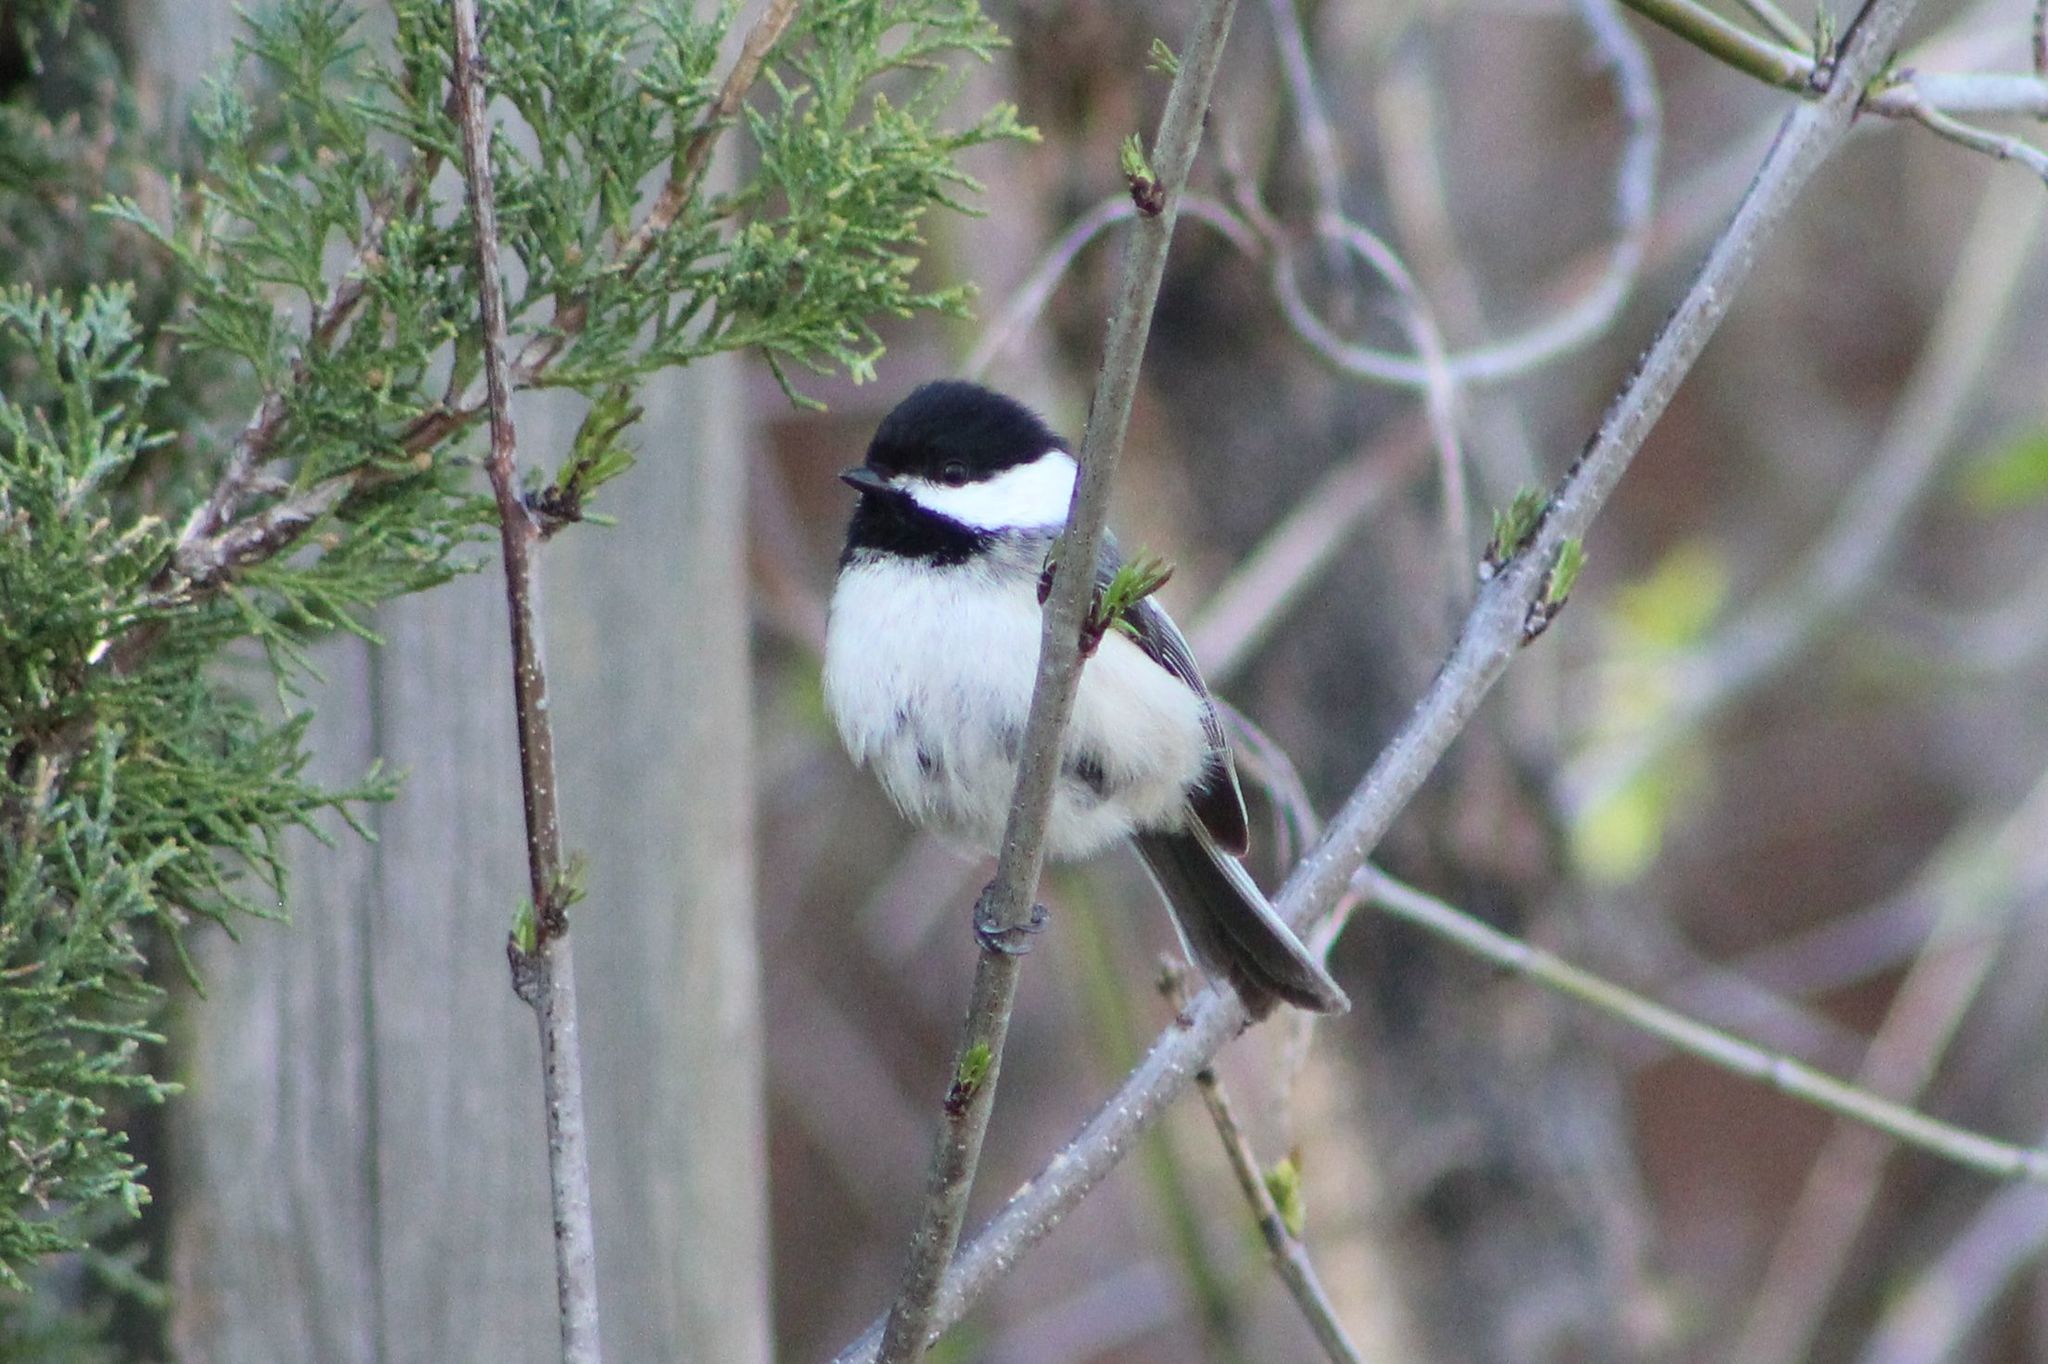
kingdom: Animalia
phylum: Chordata
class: Aves
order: Passeriformes
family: Paridae
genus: Poecile
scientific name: Poecile atricapillus
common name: Black-capped chickadee
